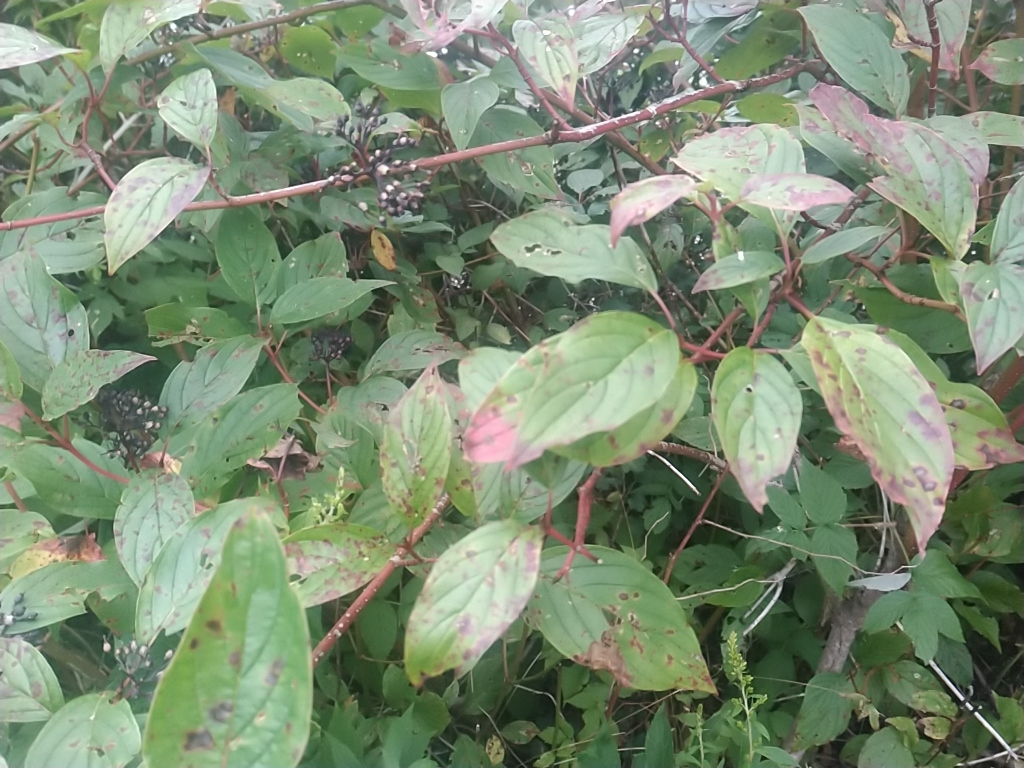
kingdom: Plantae
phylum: Tracheophyta
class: Magnoliopsida
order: Cornales
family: Cornaceae
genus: Cornus
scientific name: Cornus sericea
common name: Red-osier dogwood
